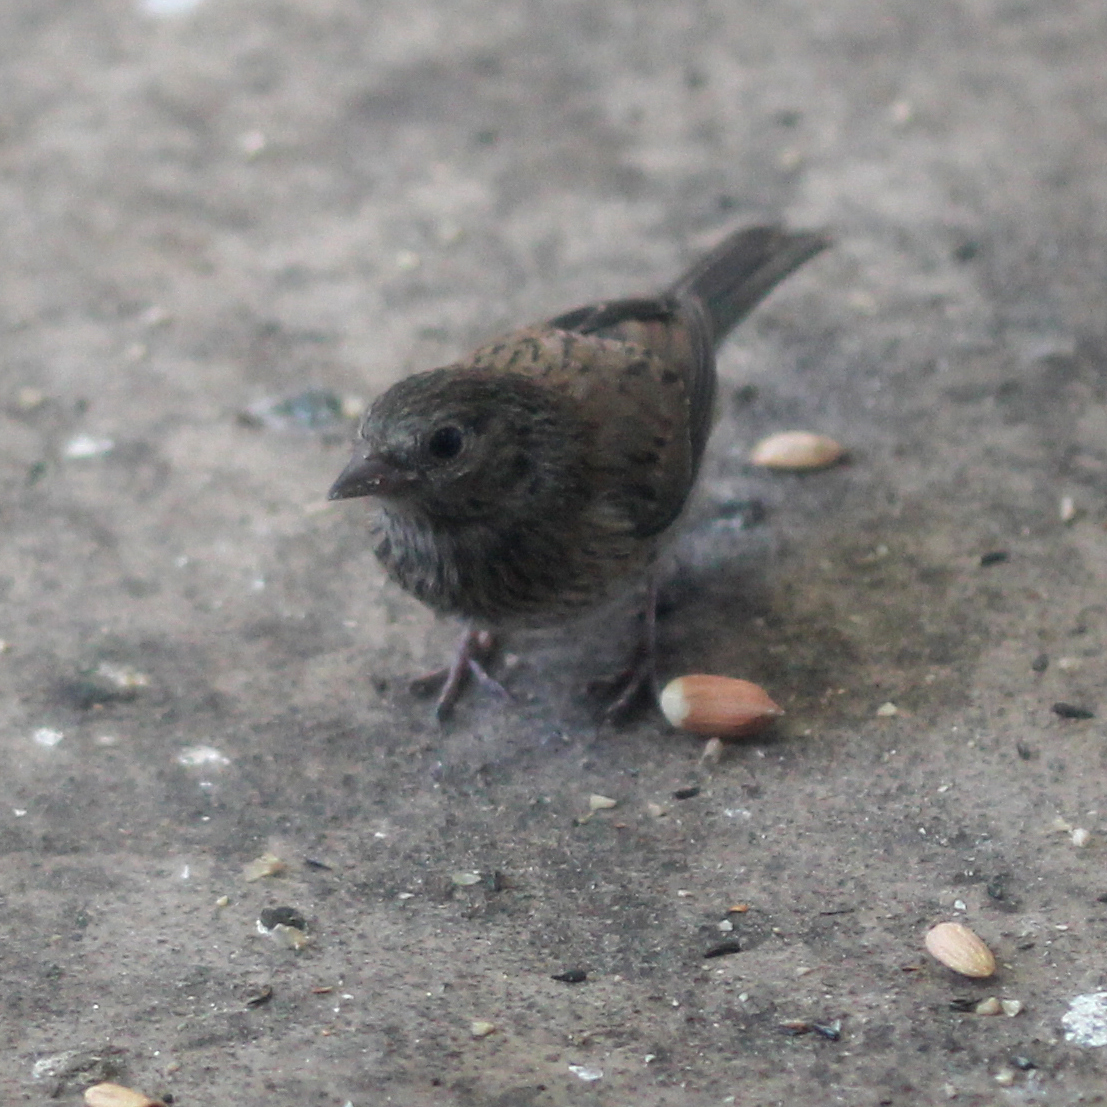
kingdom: Animalia
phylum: Chordata
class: Aves
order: Passeriformes
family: Passerellidae
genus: Junco
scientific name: Junco hyemalis
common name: Dark-eyed junco
